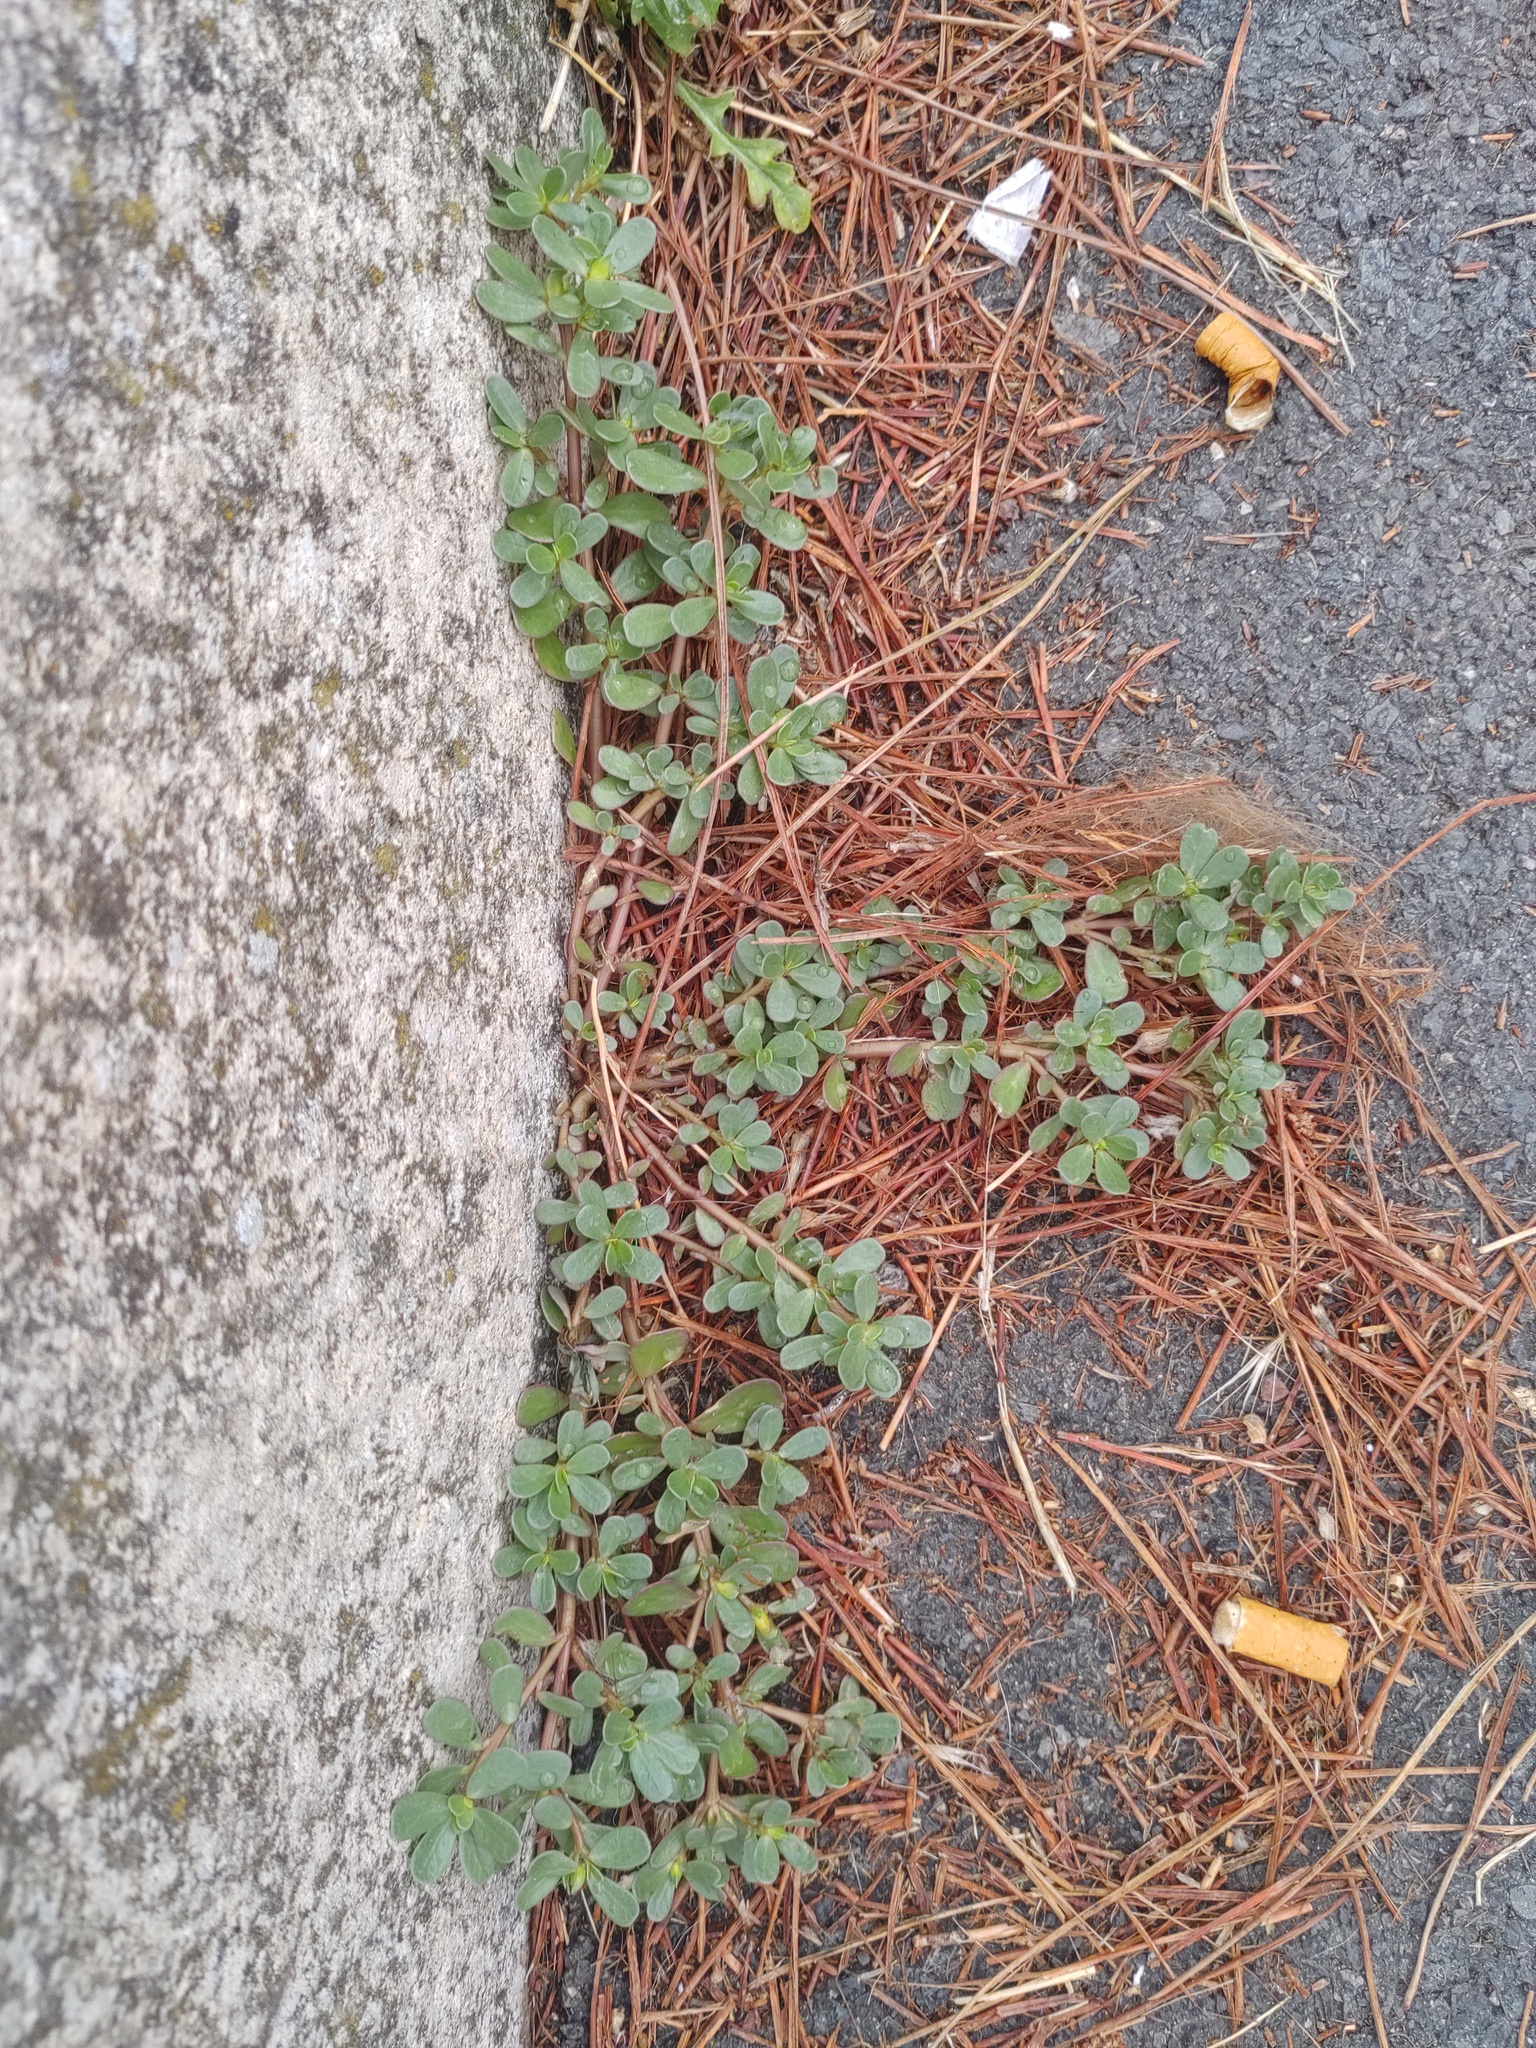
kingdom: Plantae
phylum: Tracheophyta
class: Magnoliopsida
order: Caryophyllales
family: Portulacaceae
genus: Portulaca
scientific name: Portulaca oleracea
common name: Common purslane
